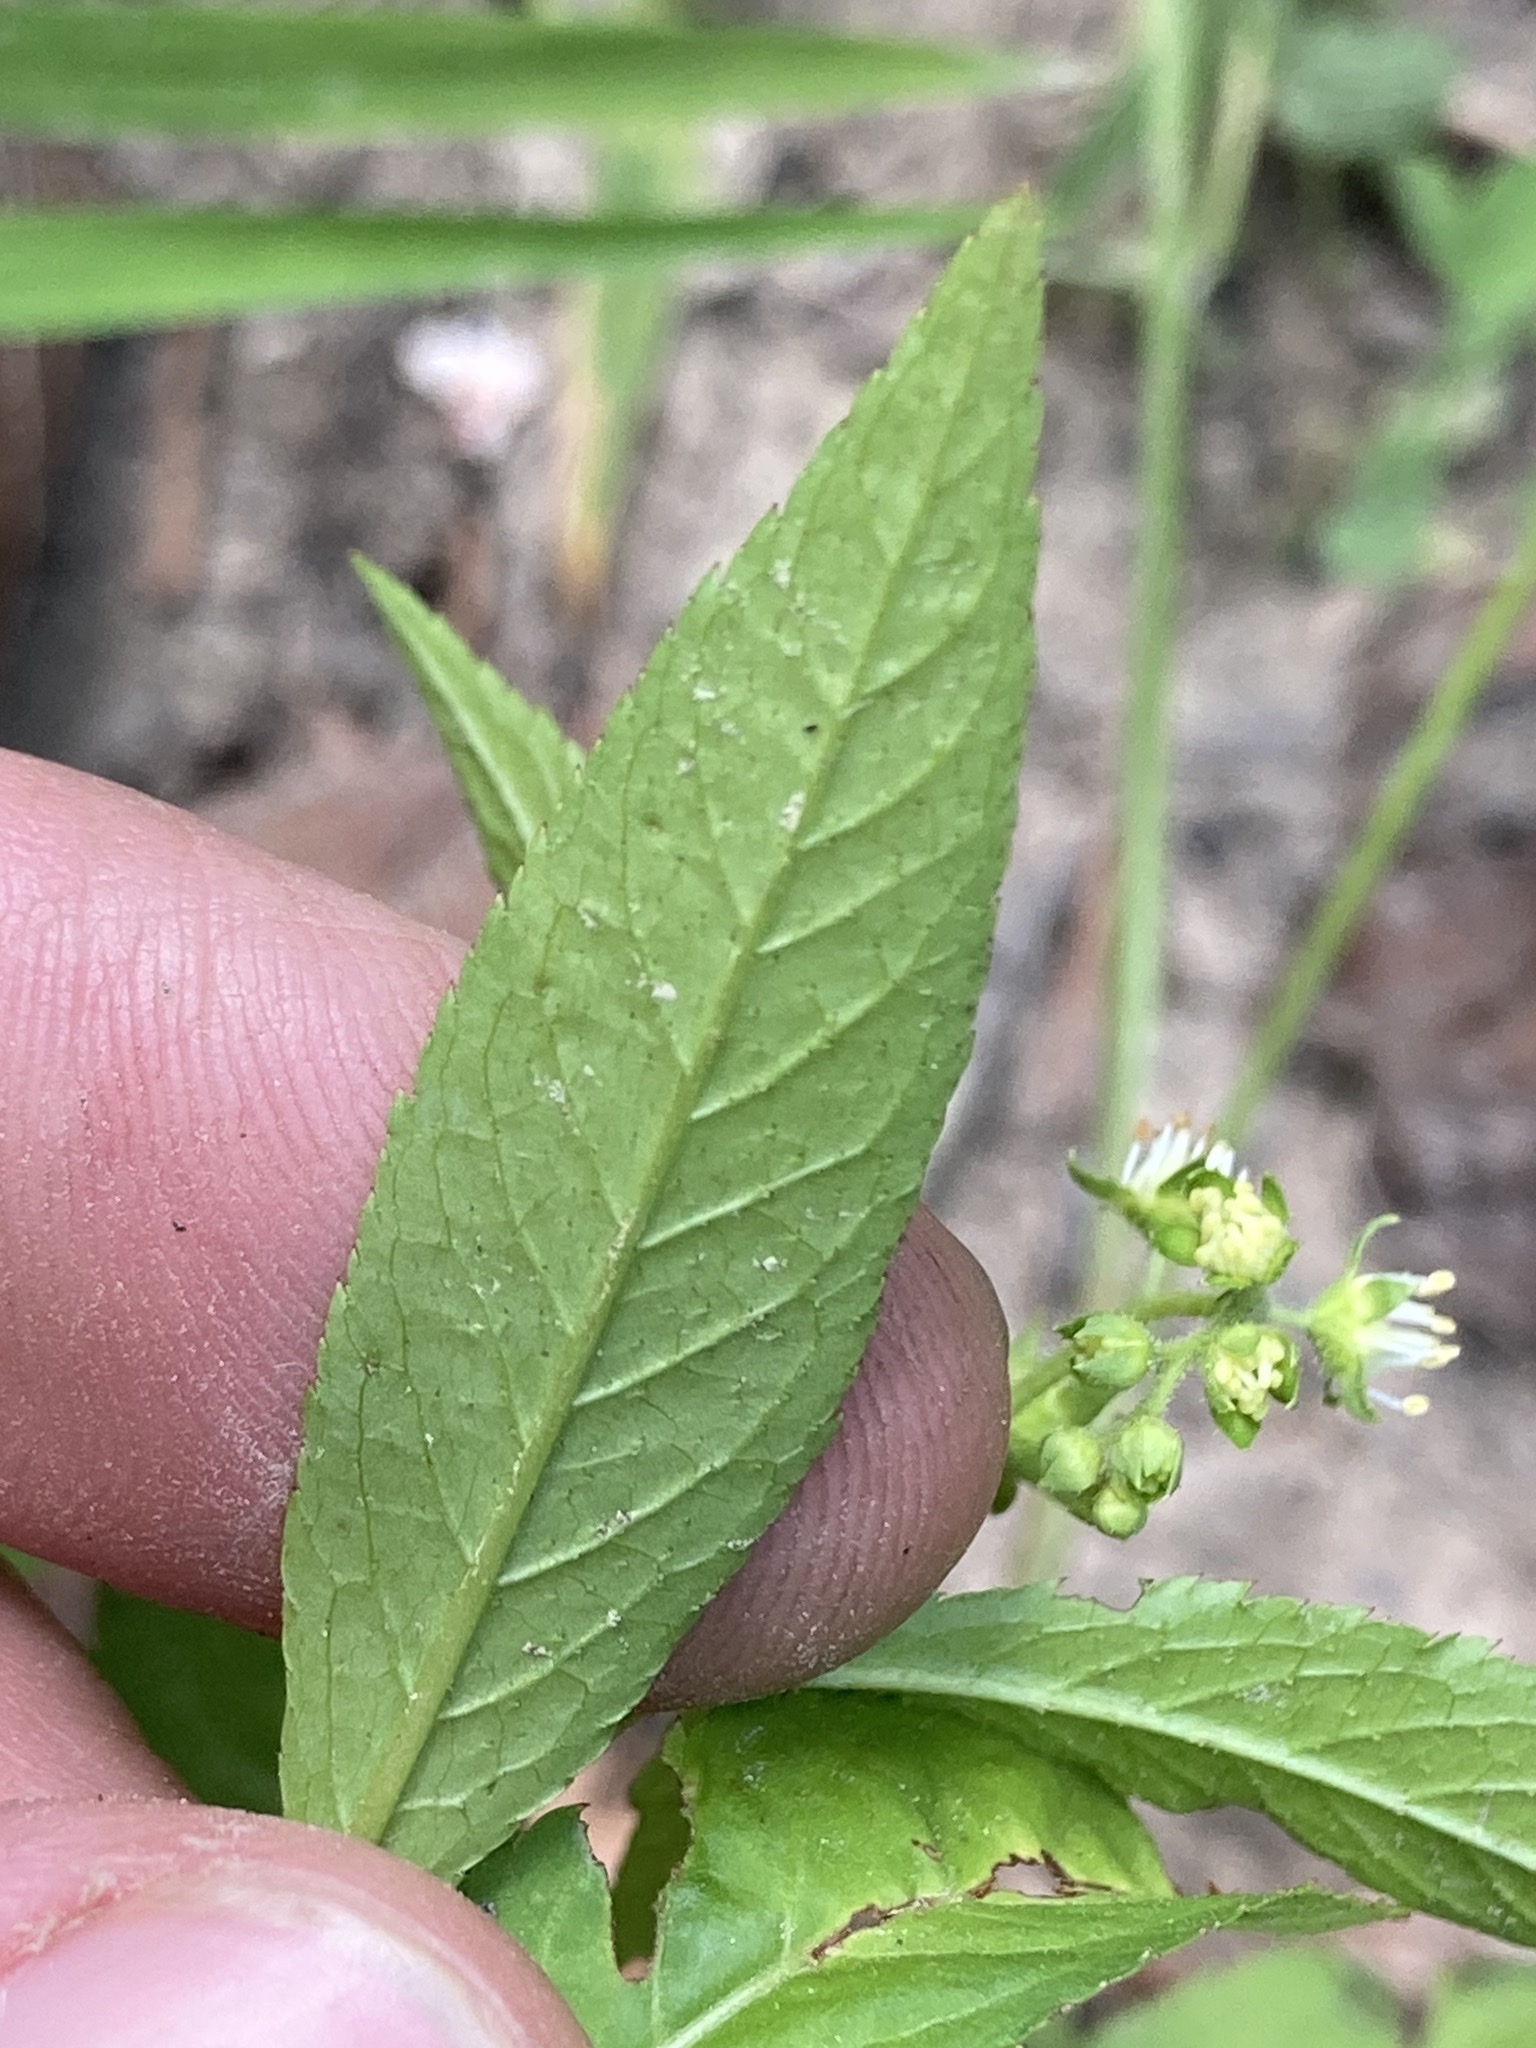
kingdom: Plantae
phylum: Tracheophyta
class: Magnoliopsida
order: Saxifragales
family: Penthoraceae
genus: Penthorum
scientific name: Penthorum sedoides
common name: Ditch stonecrop
